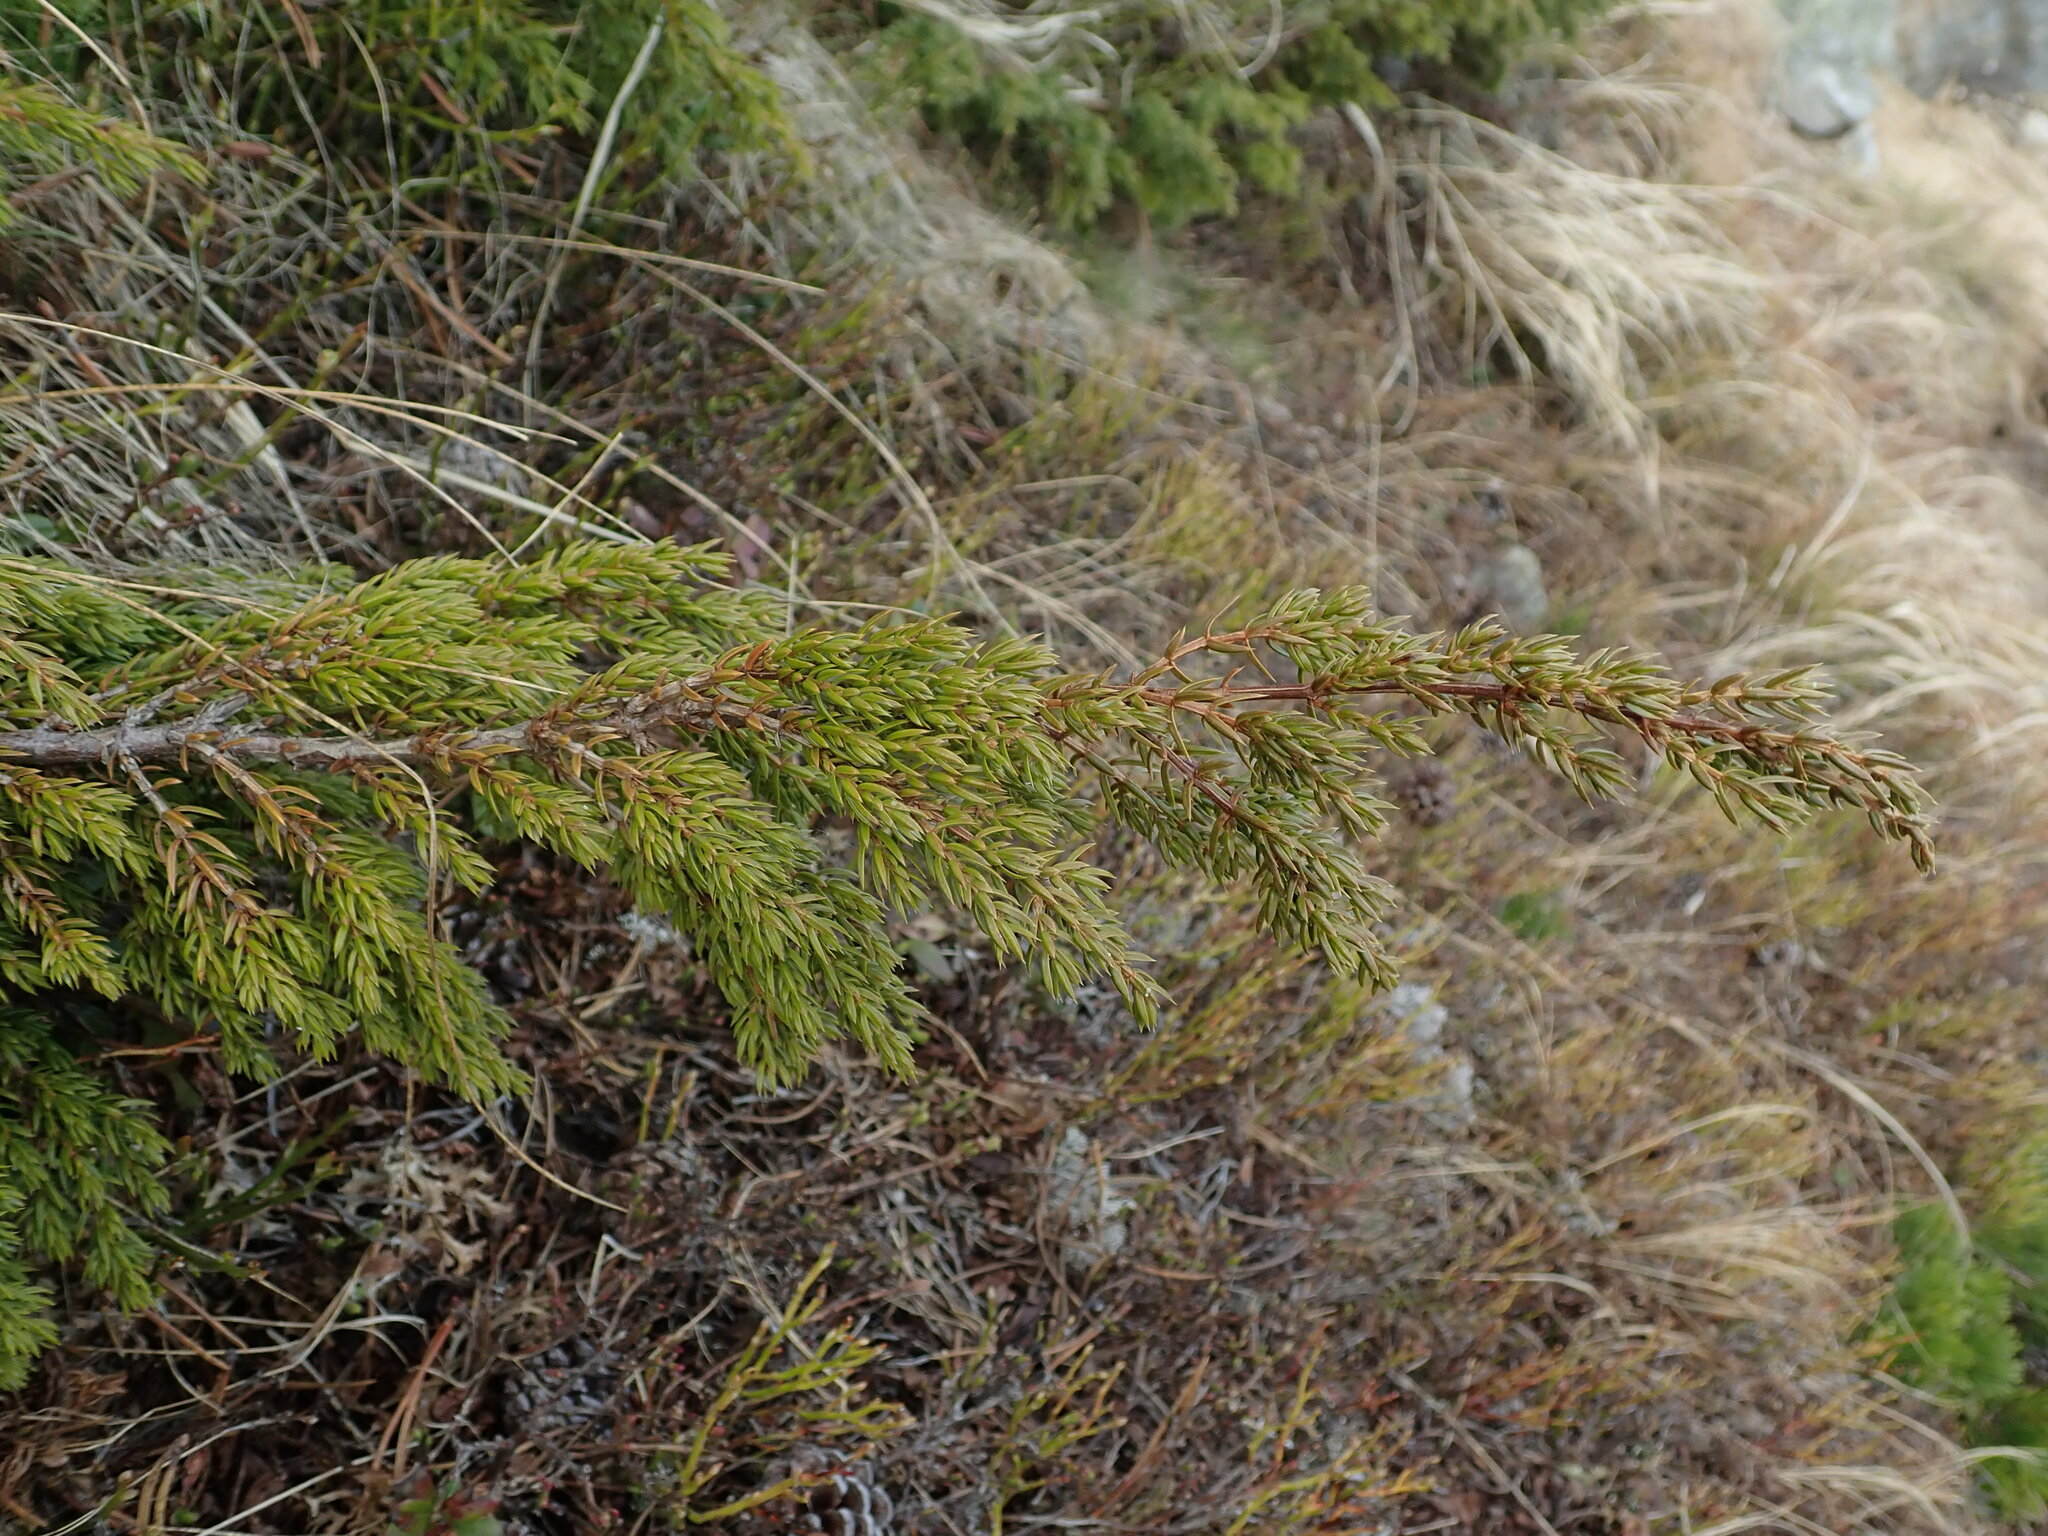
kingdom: Plantae
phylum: Tracheophyta
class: Pinopsida
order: Pinales
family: Cupressaceae
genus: Juniperus
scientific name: Juniperus communis
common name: Common juniper
